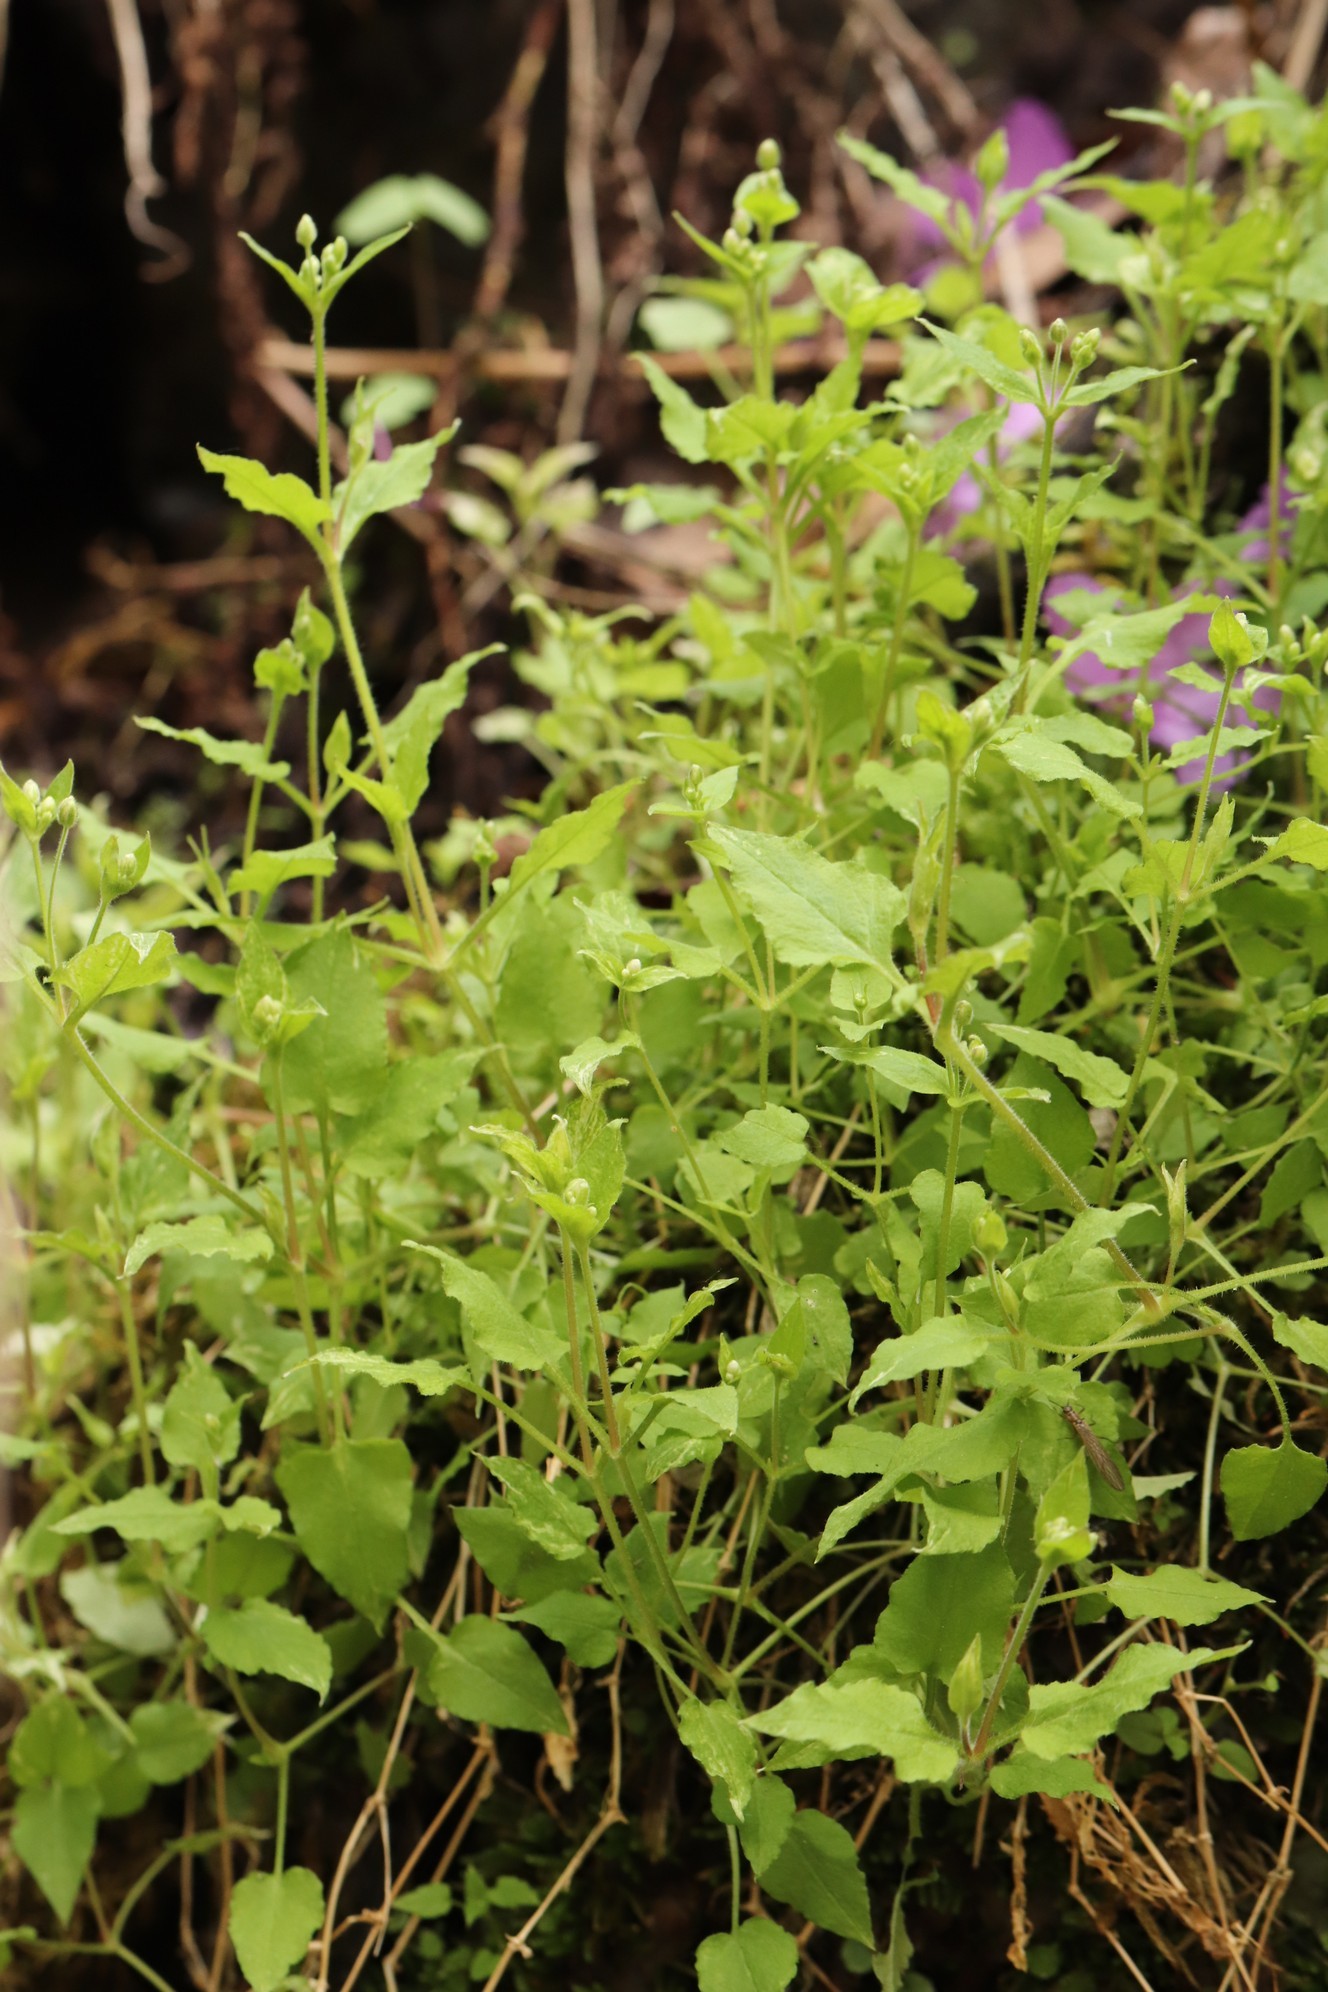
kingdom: Plantae
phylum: Tracheophyta
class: Magnoliopsida
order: Caryophyllales
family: Caryophyllaceae
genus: Stellaria
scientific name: Stellaria bungeana
